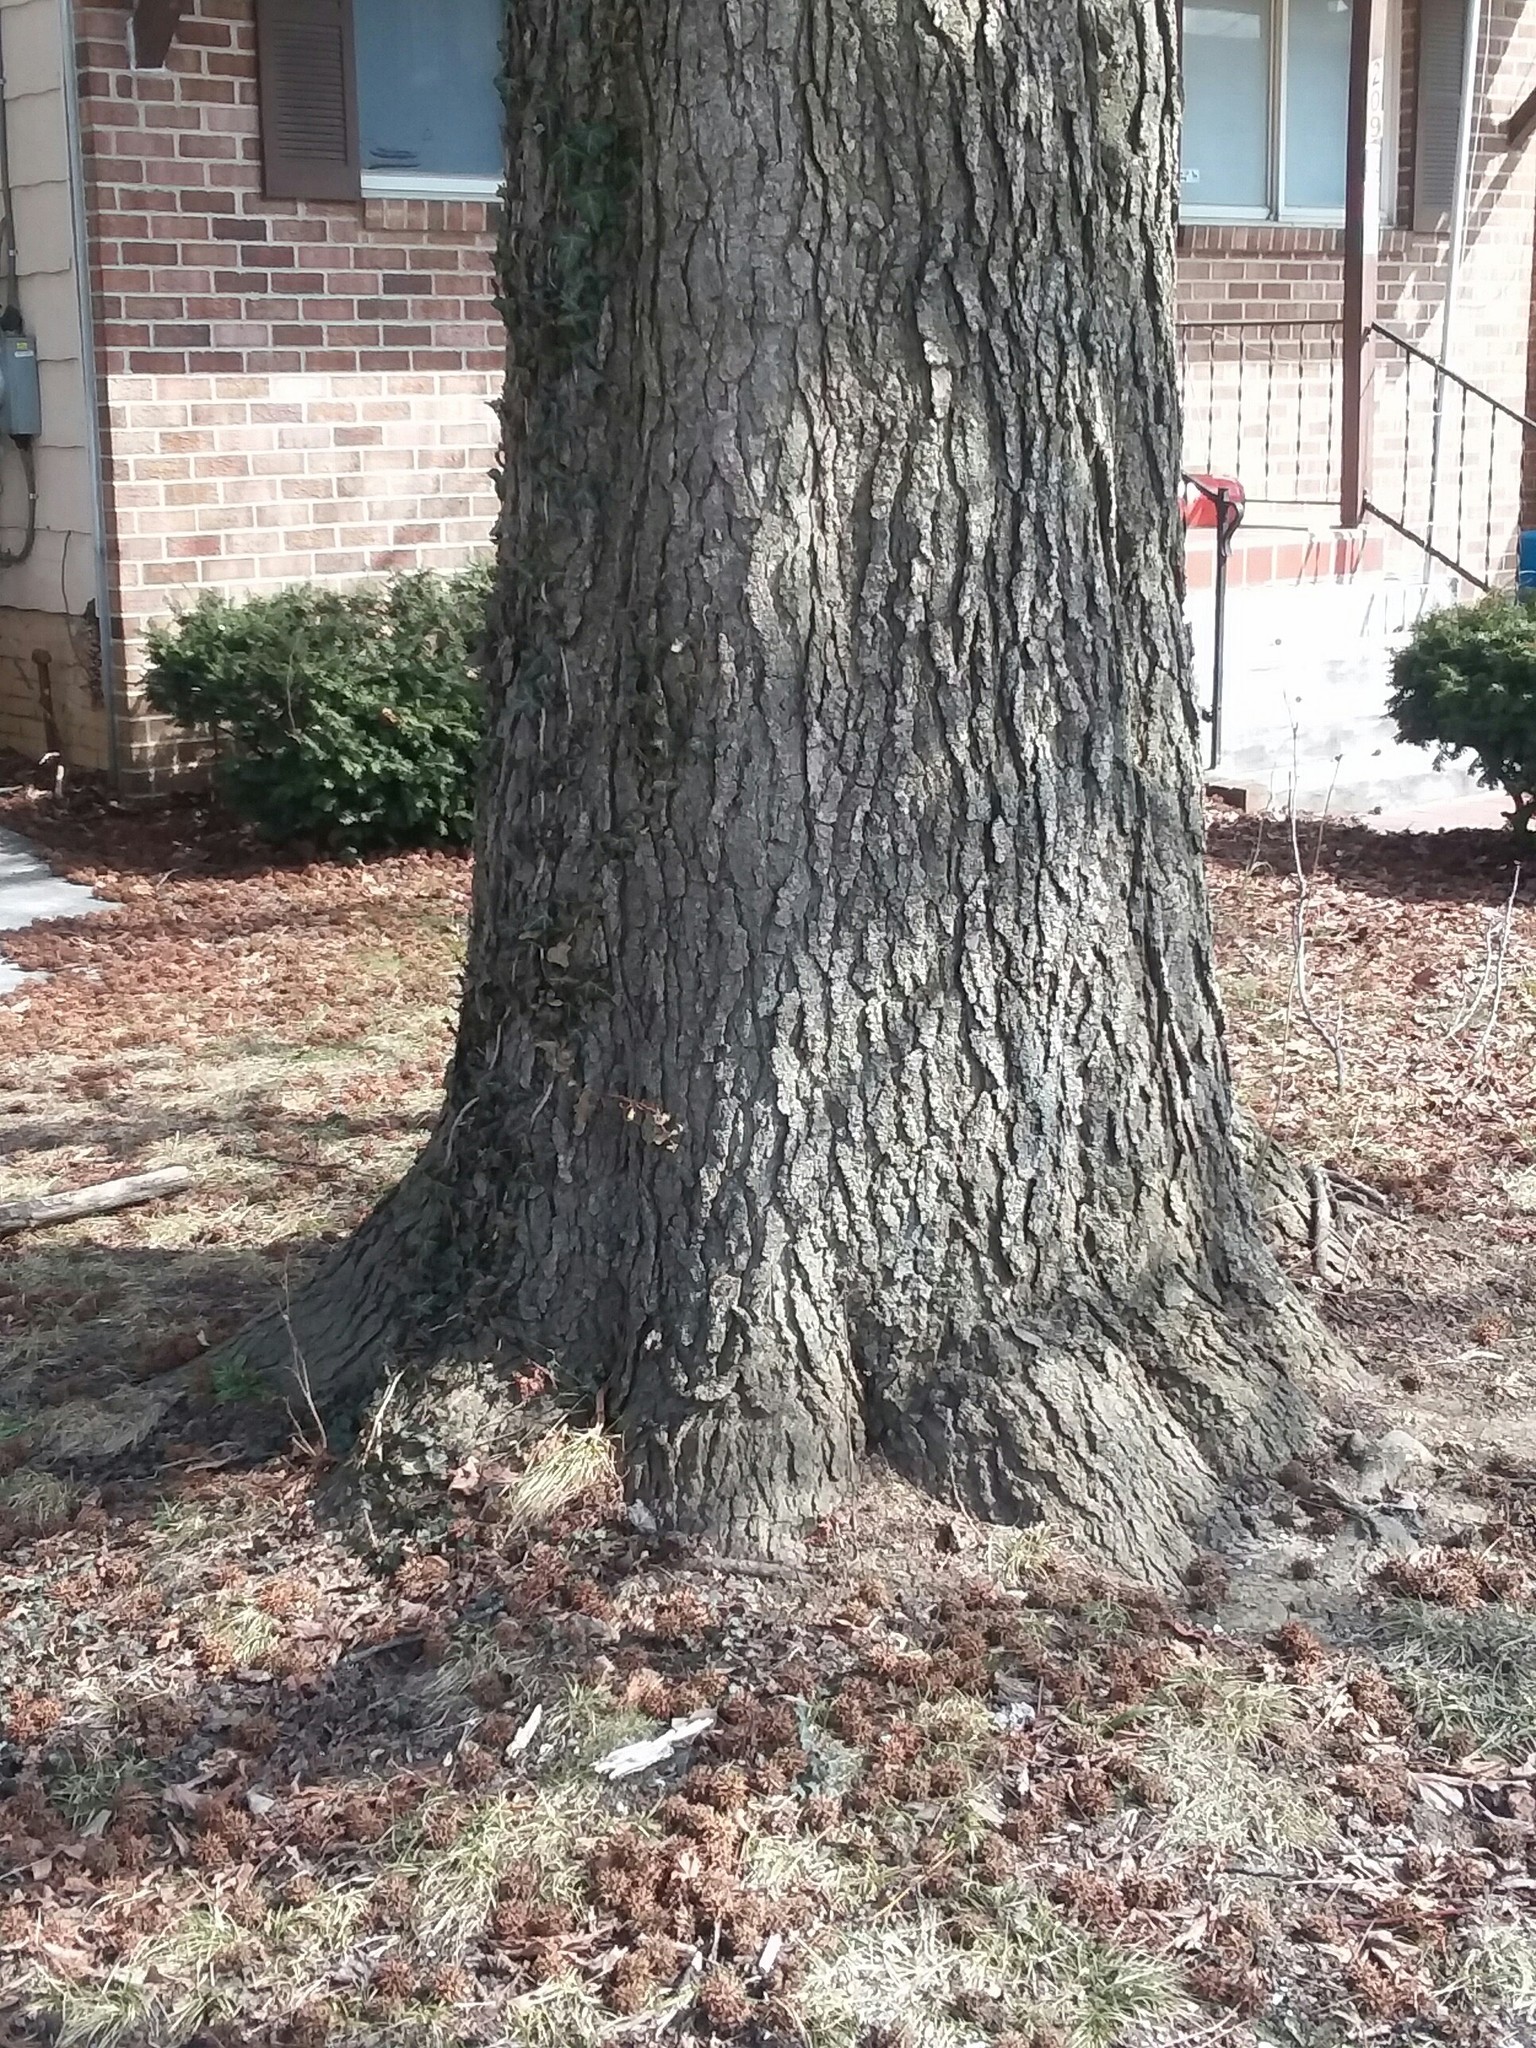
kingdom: Plantae
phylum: Tracheophyta
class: Magnoliopsida
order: Saxifragales
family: Altingiaceae
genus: Liquidambar
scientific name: Liquidambar styraciflua
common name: Sweet gum
